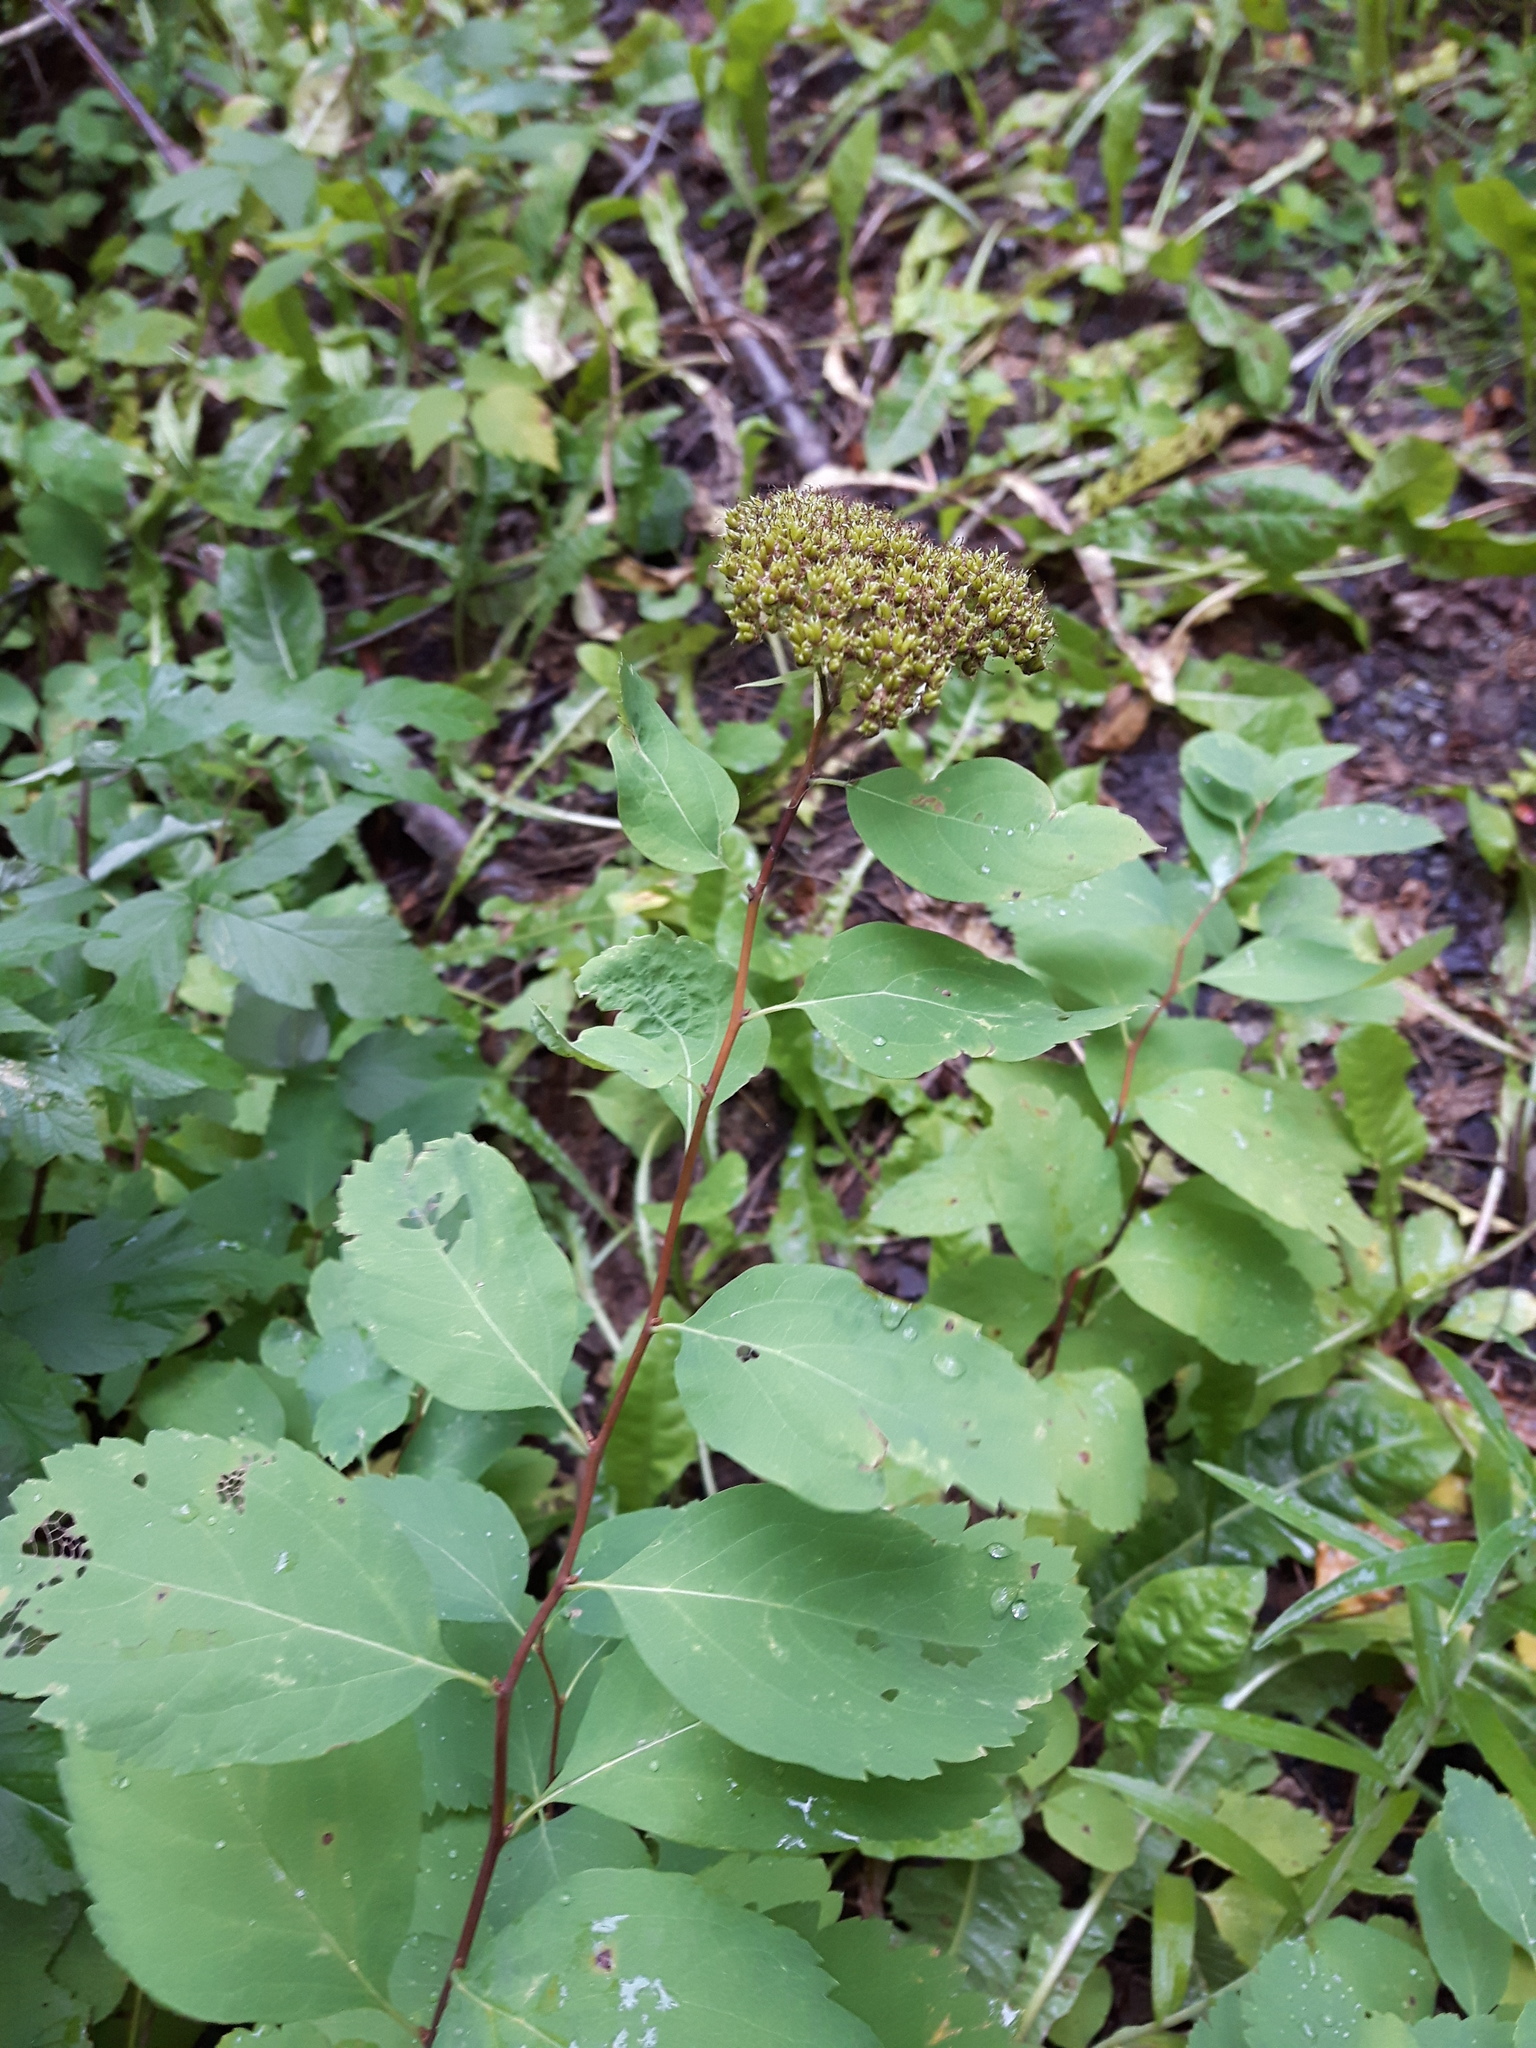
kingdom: Plantae
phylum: Tracheophyta
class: Magnoliopsida
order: Rosales
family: Rosaceae
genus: Spiraea
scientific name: Spiraea lucida
